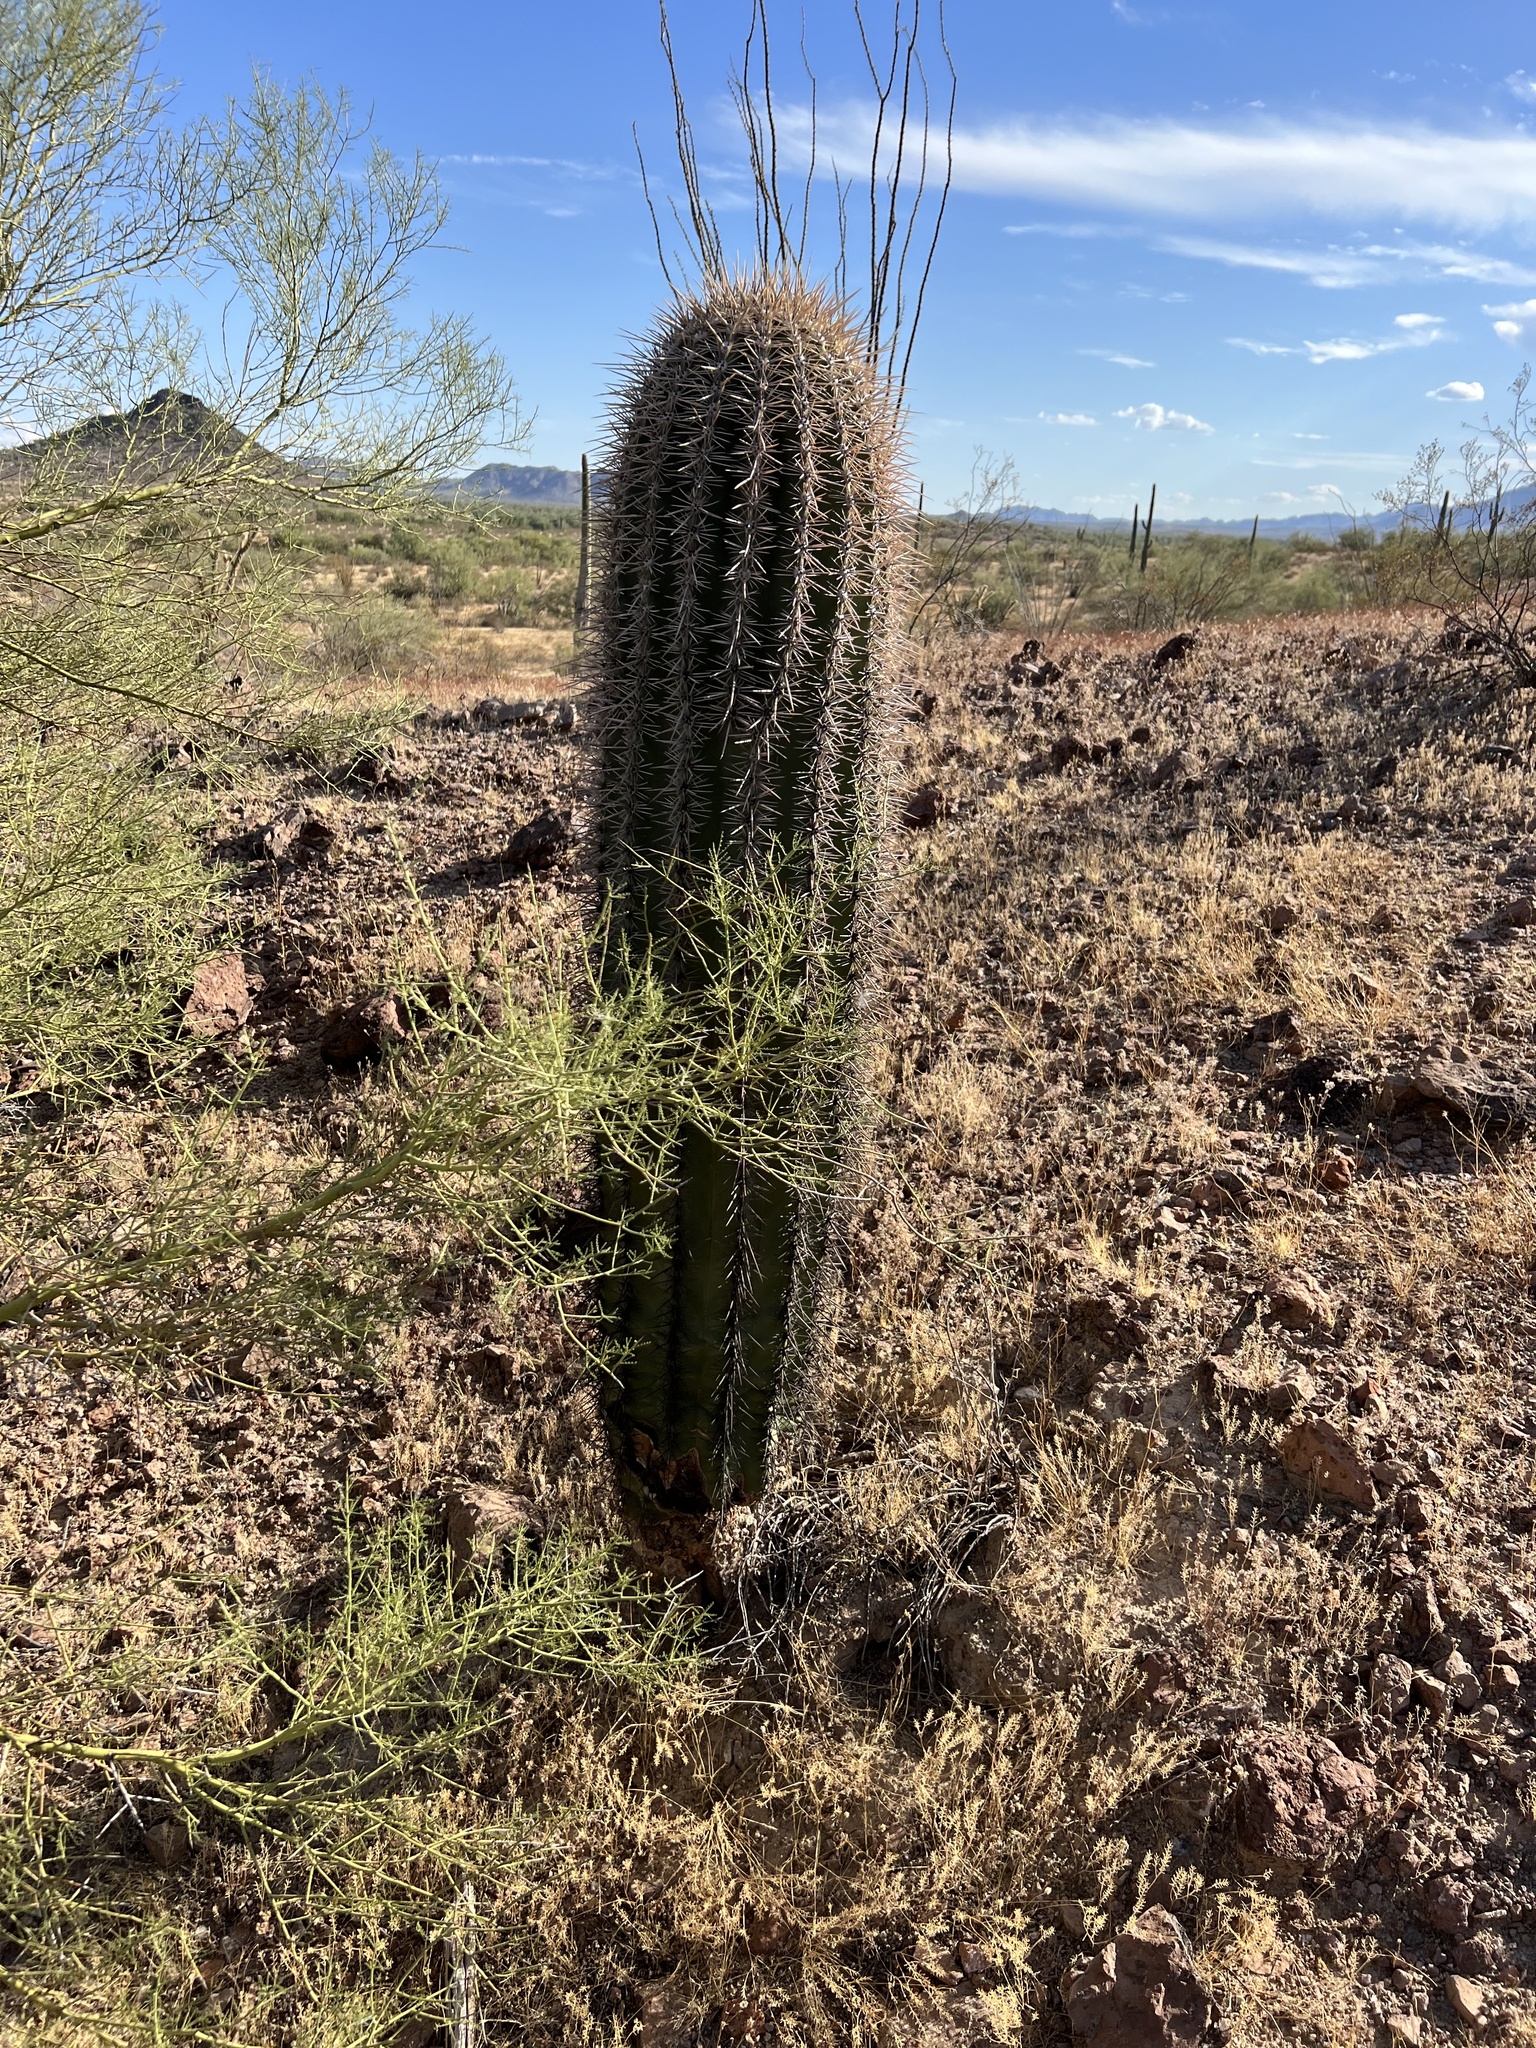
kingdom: Plantae
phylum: Tracheophyta
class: Magnoliopsida
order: Caryophyllales
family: Cactaceae
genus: Carnegiea
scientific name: Carnegiea gigantea
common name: Saguaro
